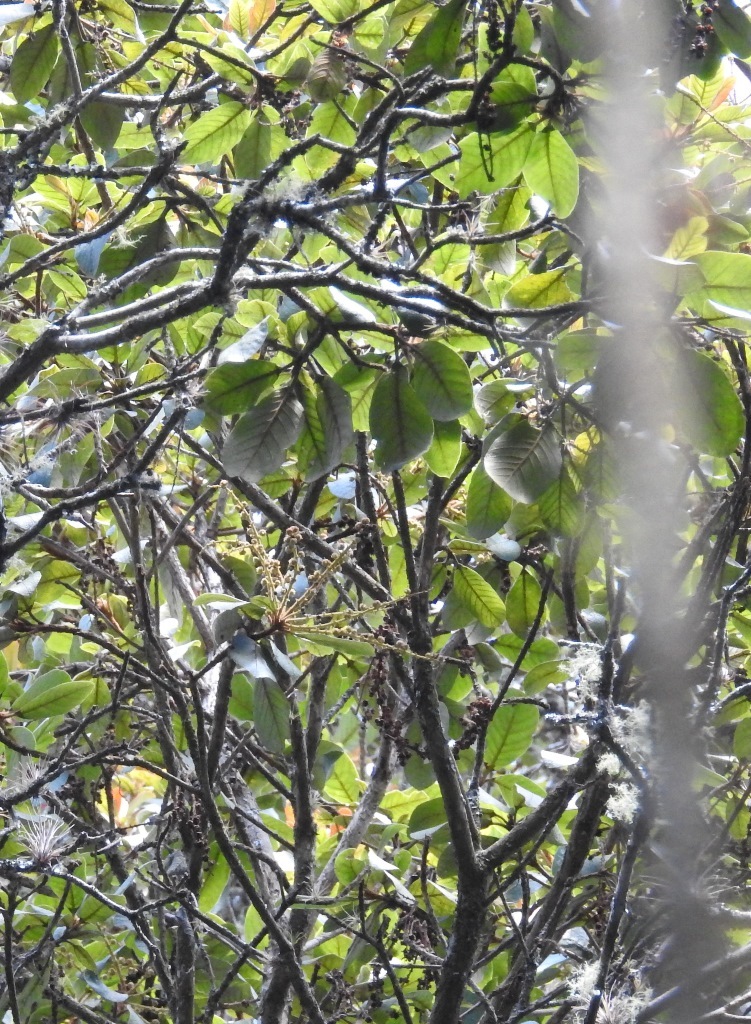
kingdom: Plantae
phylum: Tracheophyta
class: Magnoliopsida
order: Ericales
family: Clethraceae
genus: Clethra
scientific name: Clethra chiapensis
